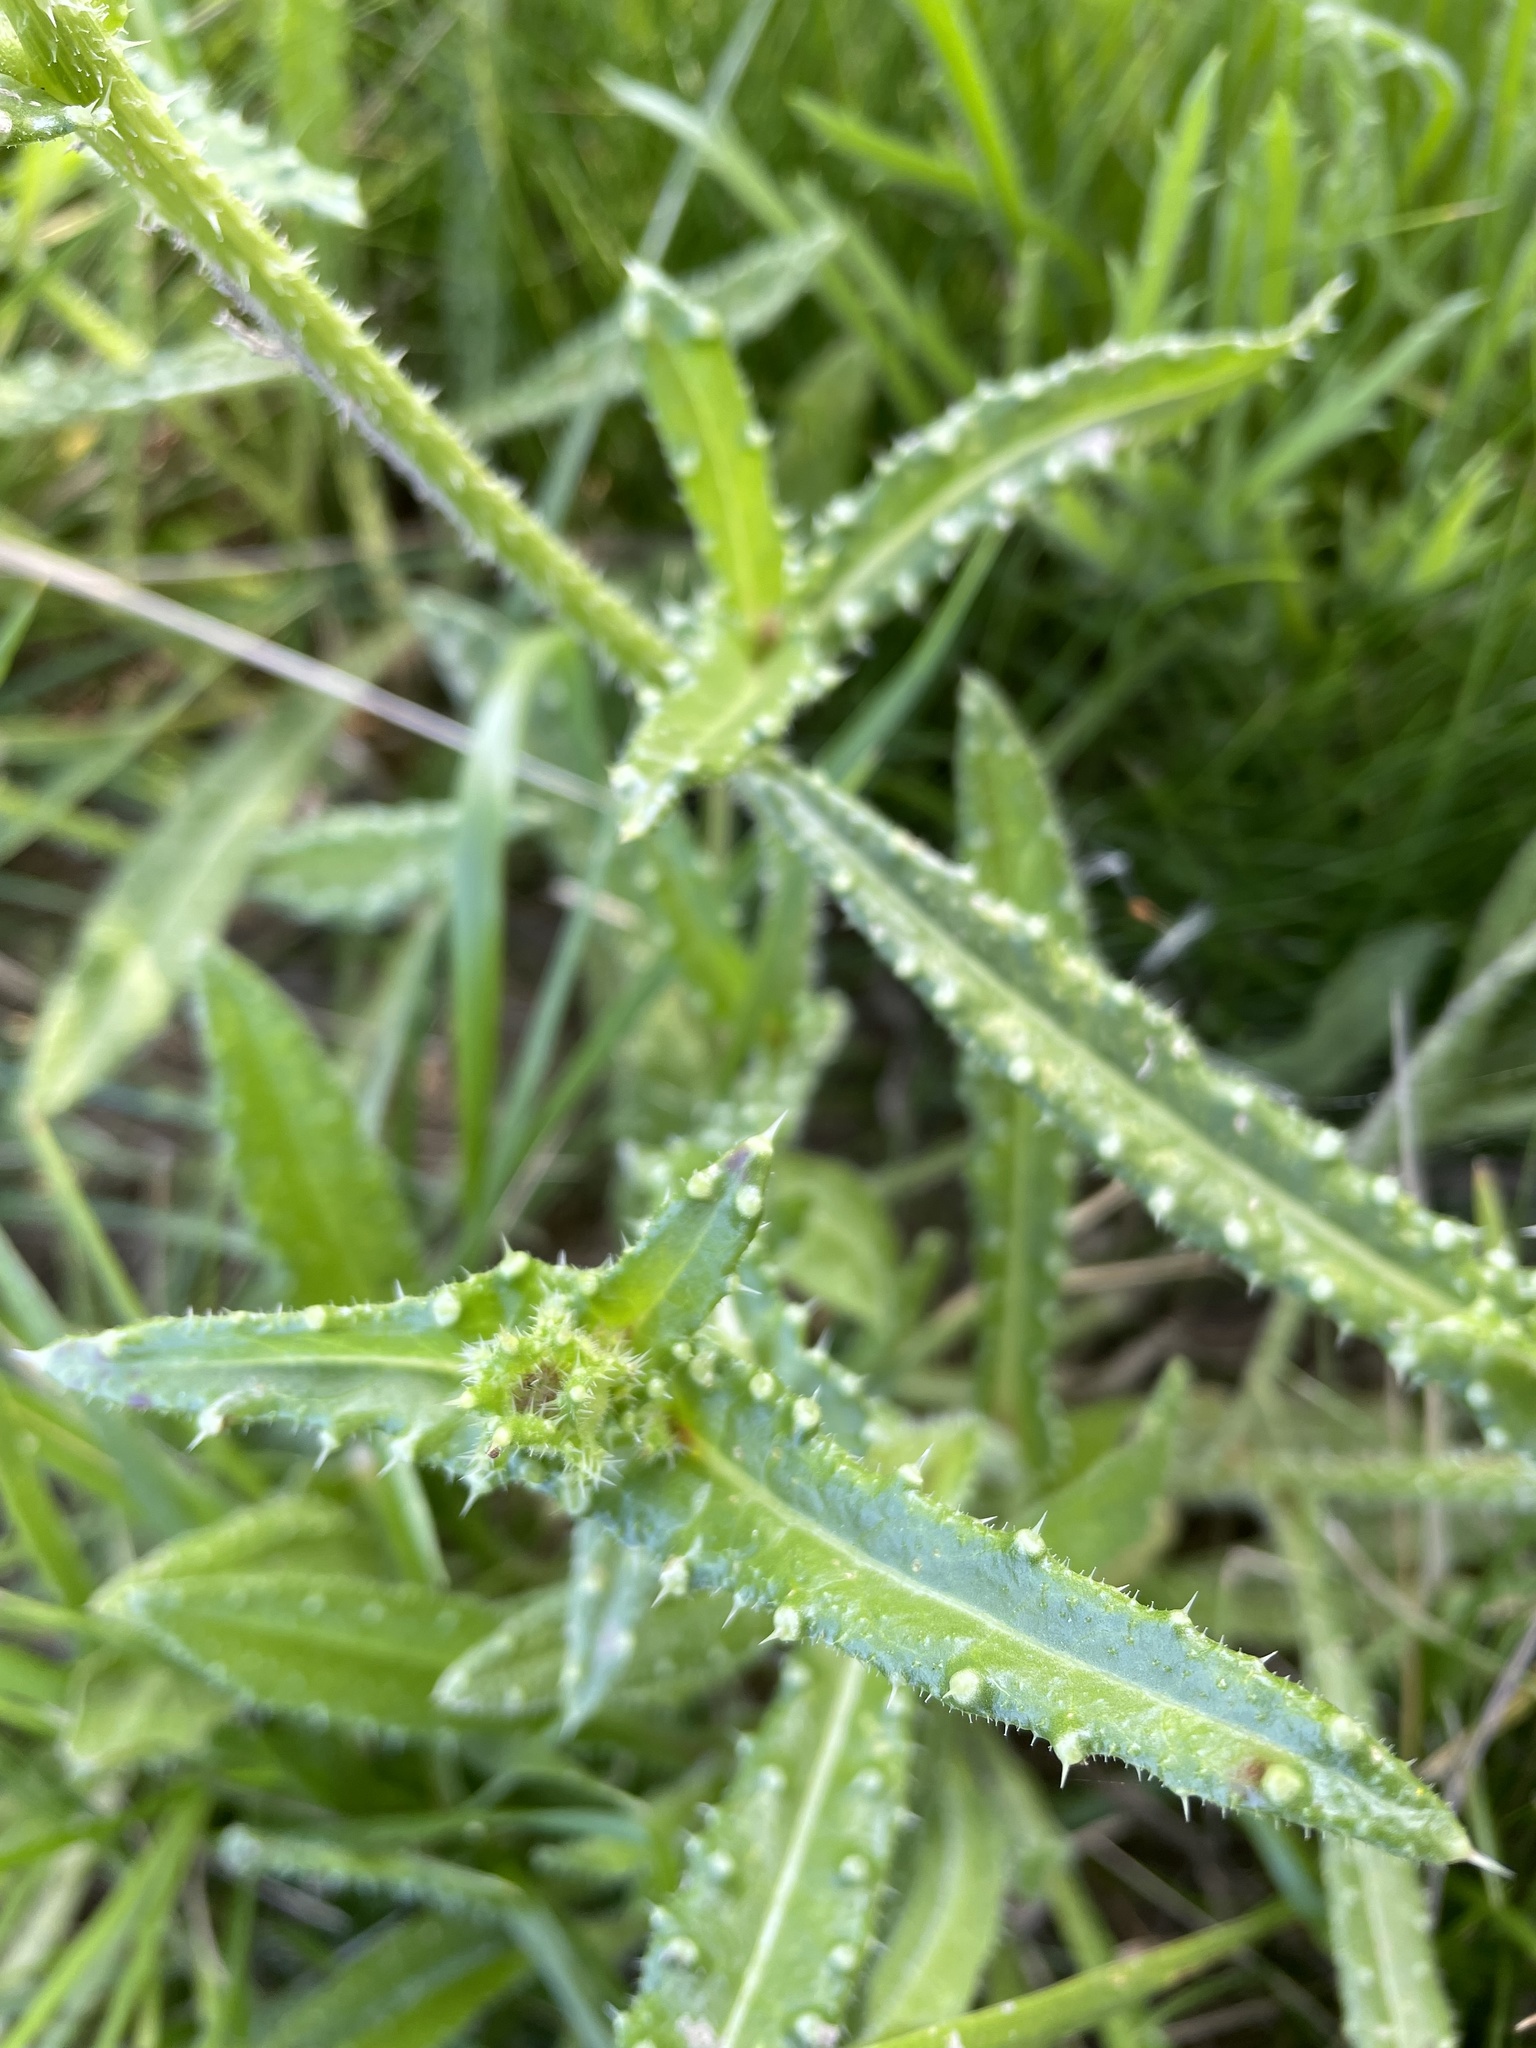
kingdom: Plantae
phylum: Tracheophyta
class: Magnoliopsida
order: Asterales
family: Asteraceae
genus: Helminthotheca
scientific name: Helminthotheca echioides
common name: Ox-tongue
